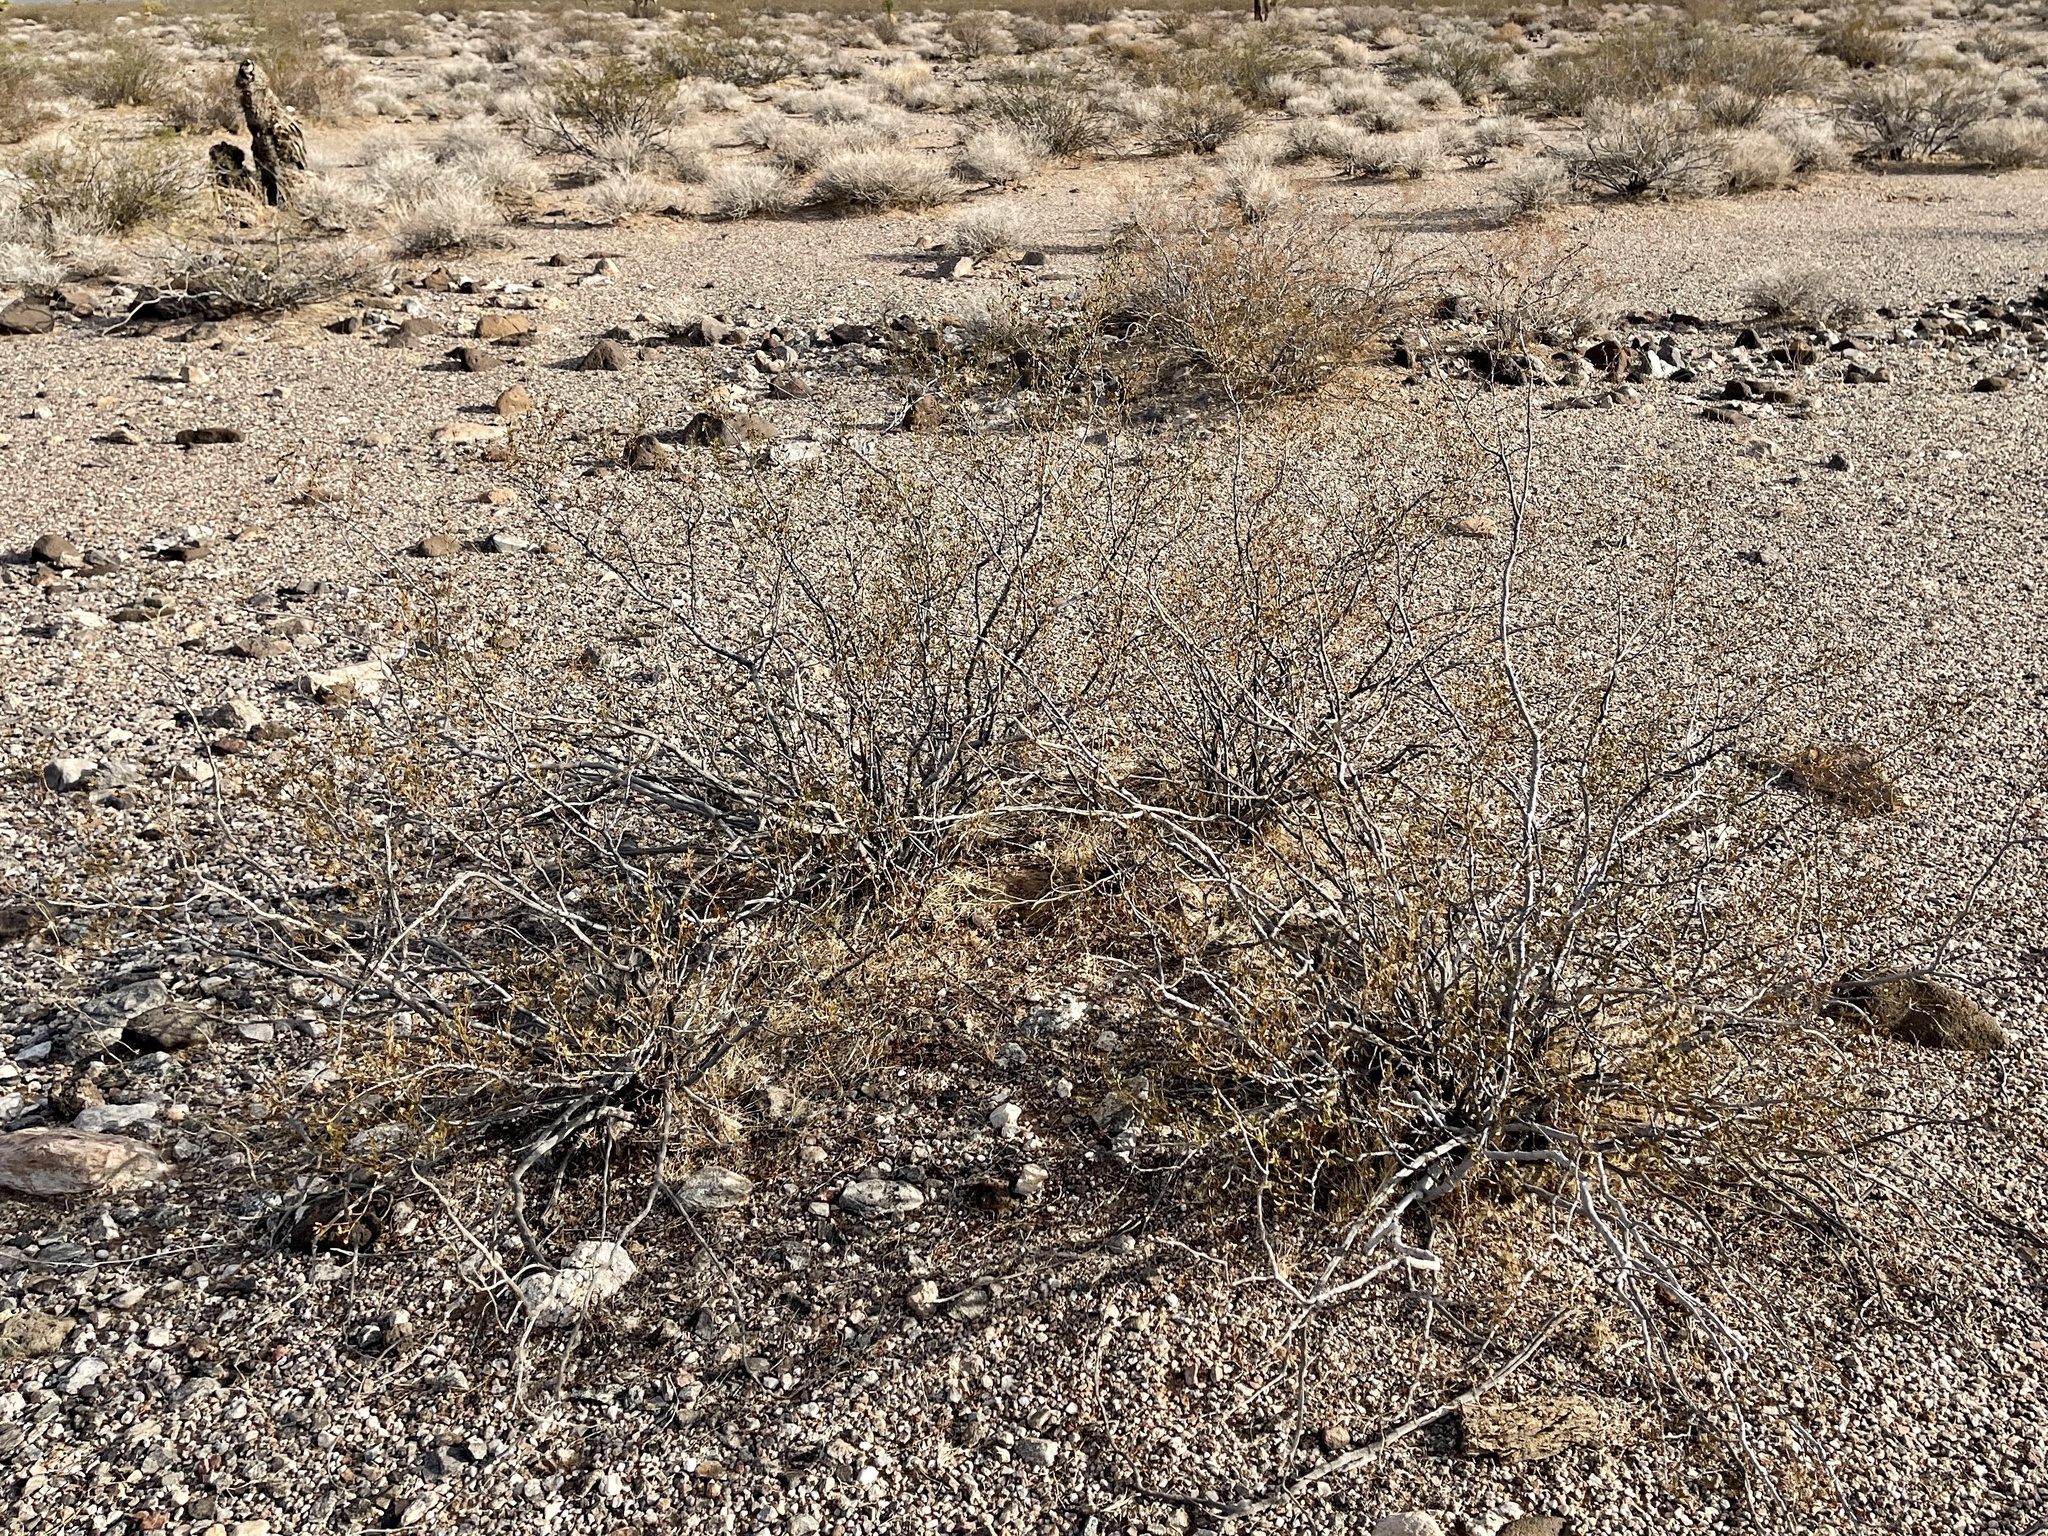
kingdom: Plantae
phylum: Tracheophyta
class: Magnoliopsida
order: Zygophyllales
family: Zygophyllaceae
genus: Larrea
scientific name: Larrea tridentata
